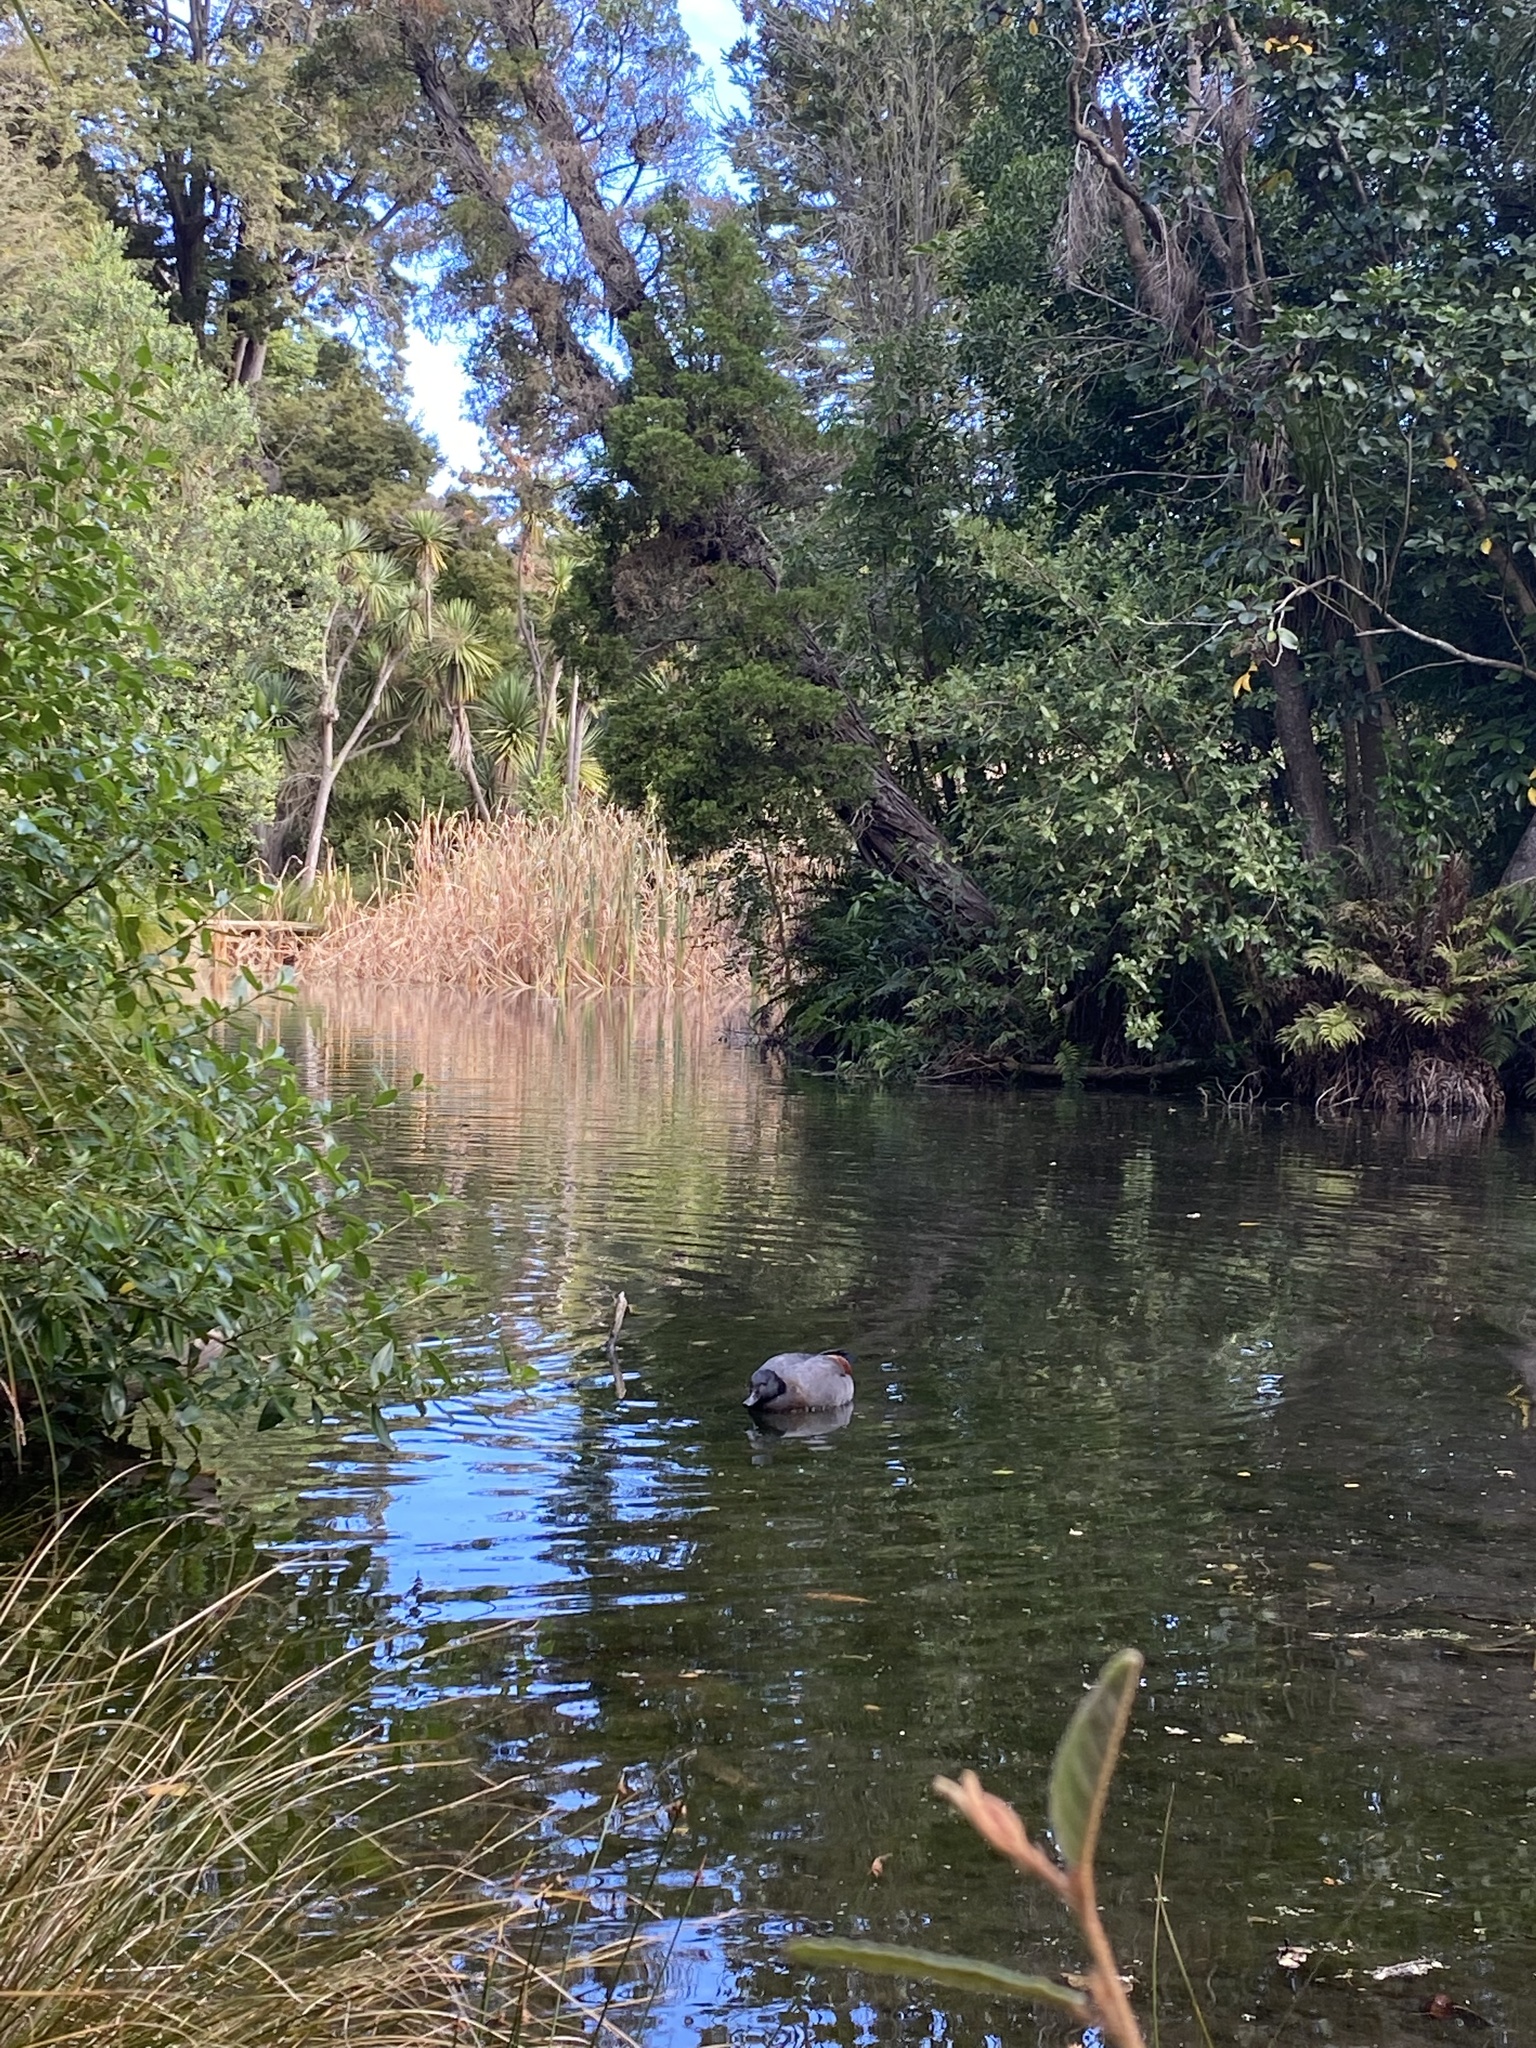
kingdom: Animalia
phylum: Chordata
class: Aves
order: Anseriformes
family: Anatidae
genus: Tadorna
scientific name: Tadorna variegata
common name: Paradise shelduck
